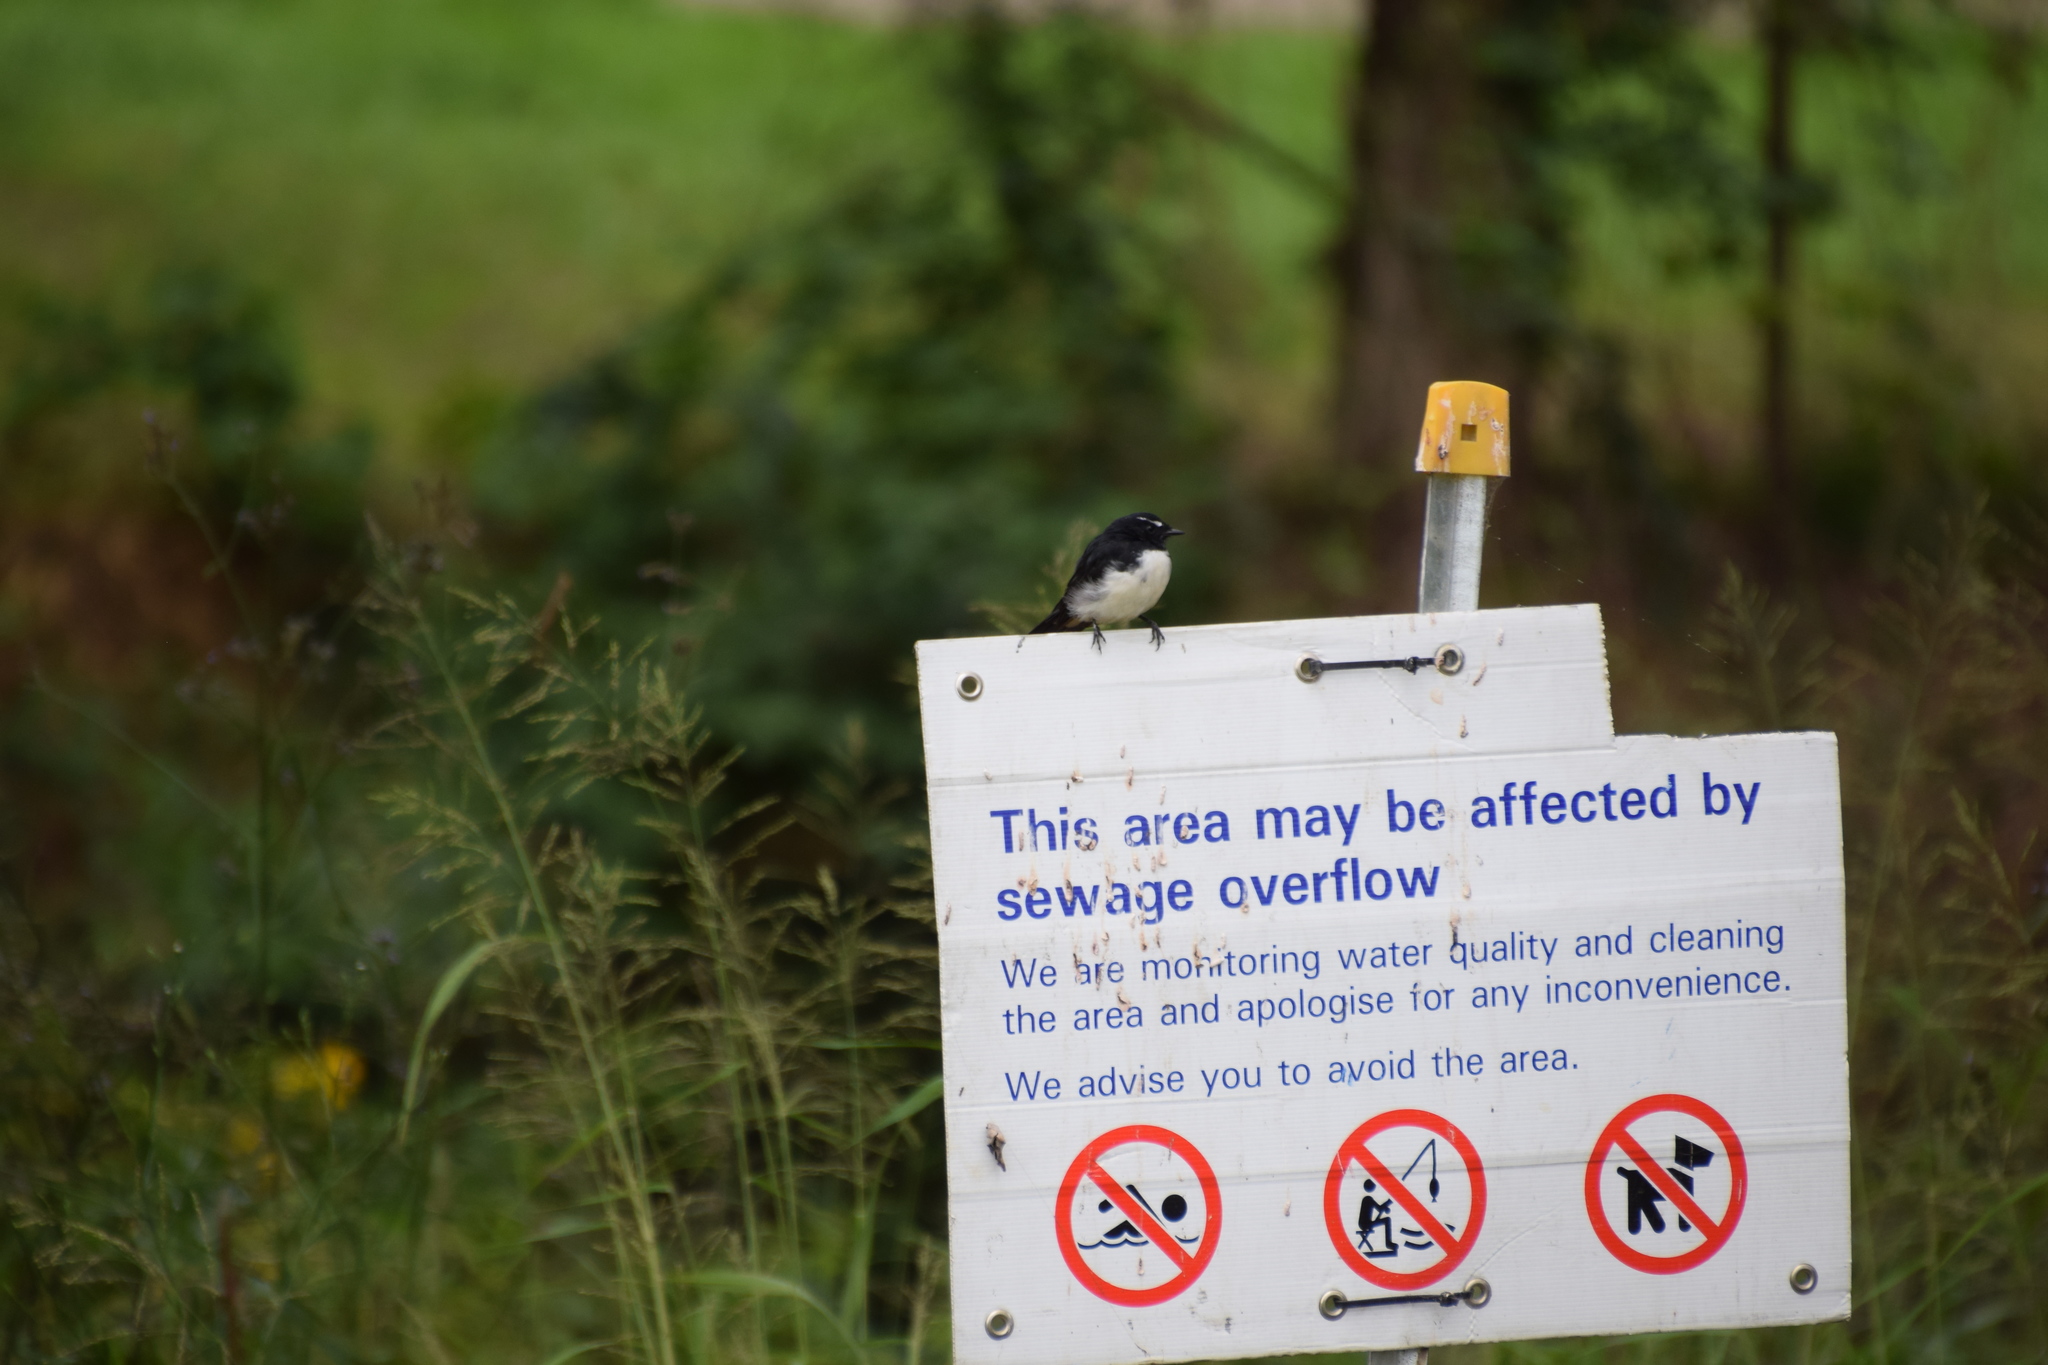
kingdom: Animalia
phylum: Chordata
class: Aves
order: Passeriformes
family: Rhipiduridae
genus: Rhipidura
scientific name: Rhipidura leucophrys
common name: Willie wagtail
